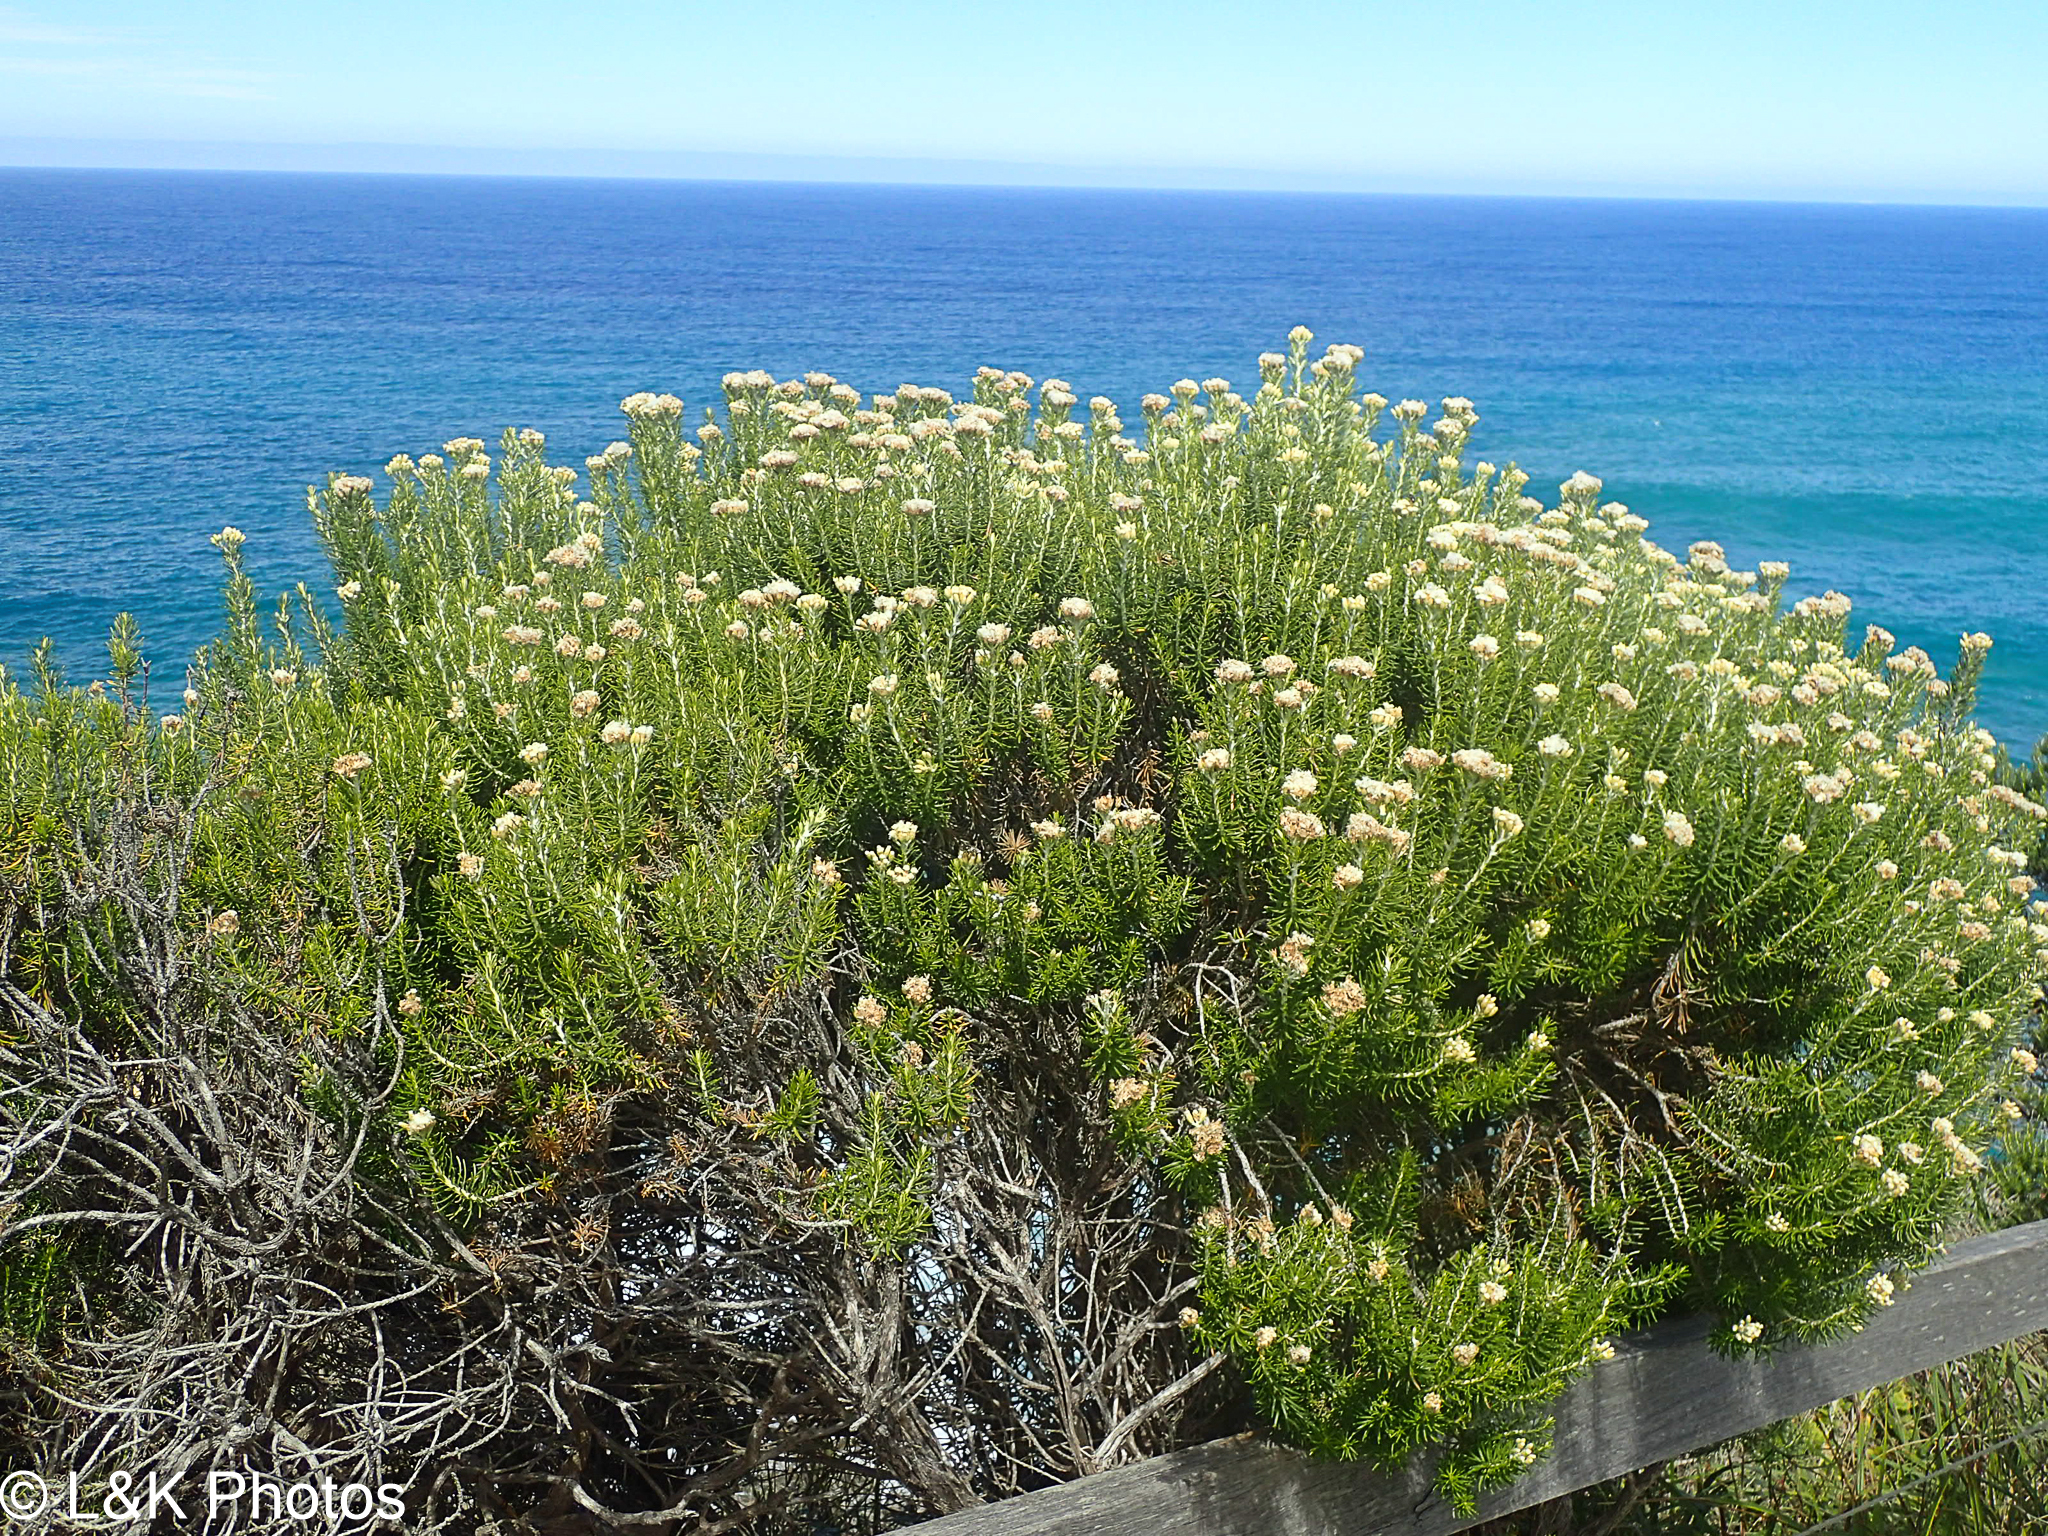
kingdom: Plantae
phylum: Tracheophyta
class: Magnoliopsida
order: Asterales
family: Asteraceae
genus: Ozothamnus
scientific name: Ozothamnus cinereus
